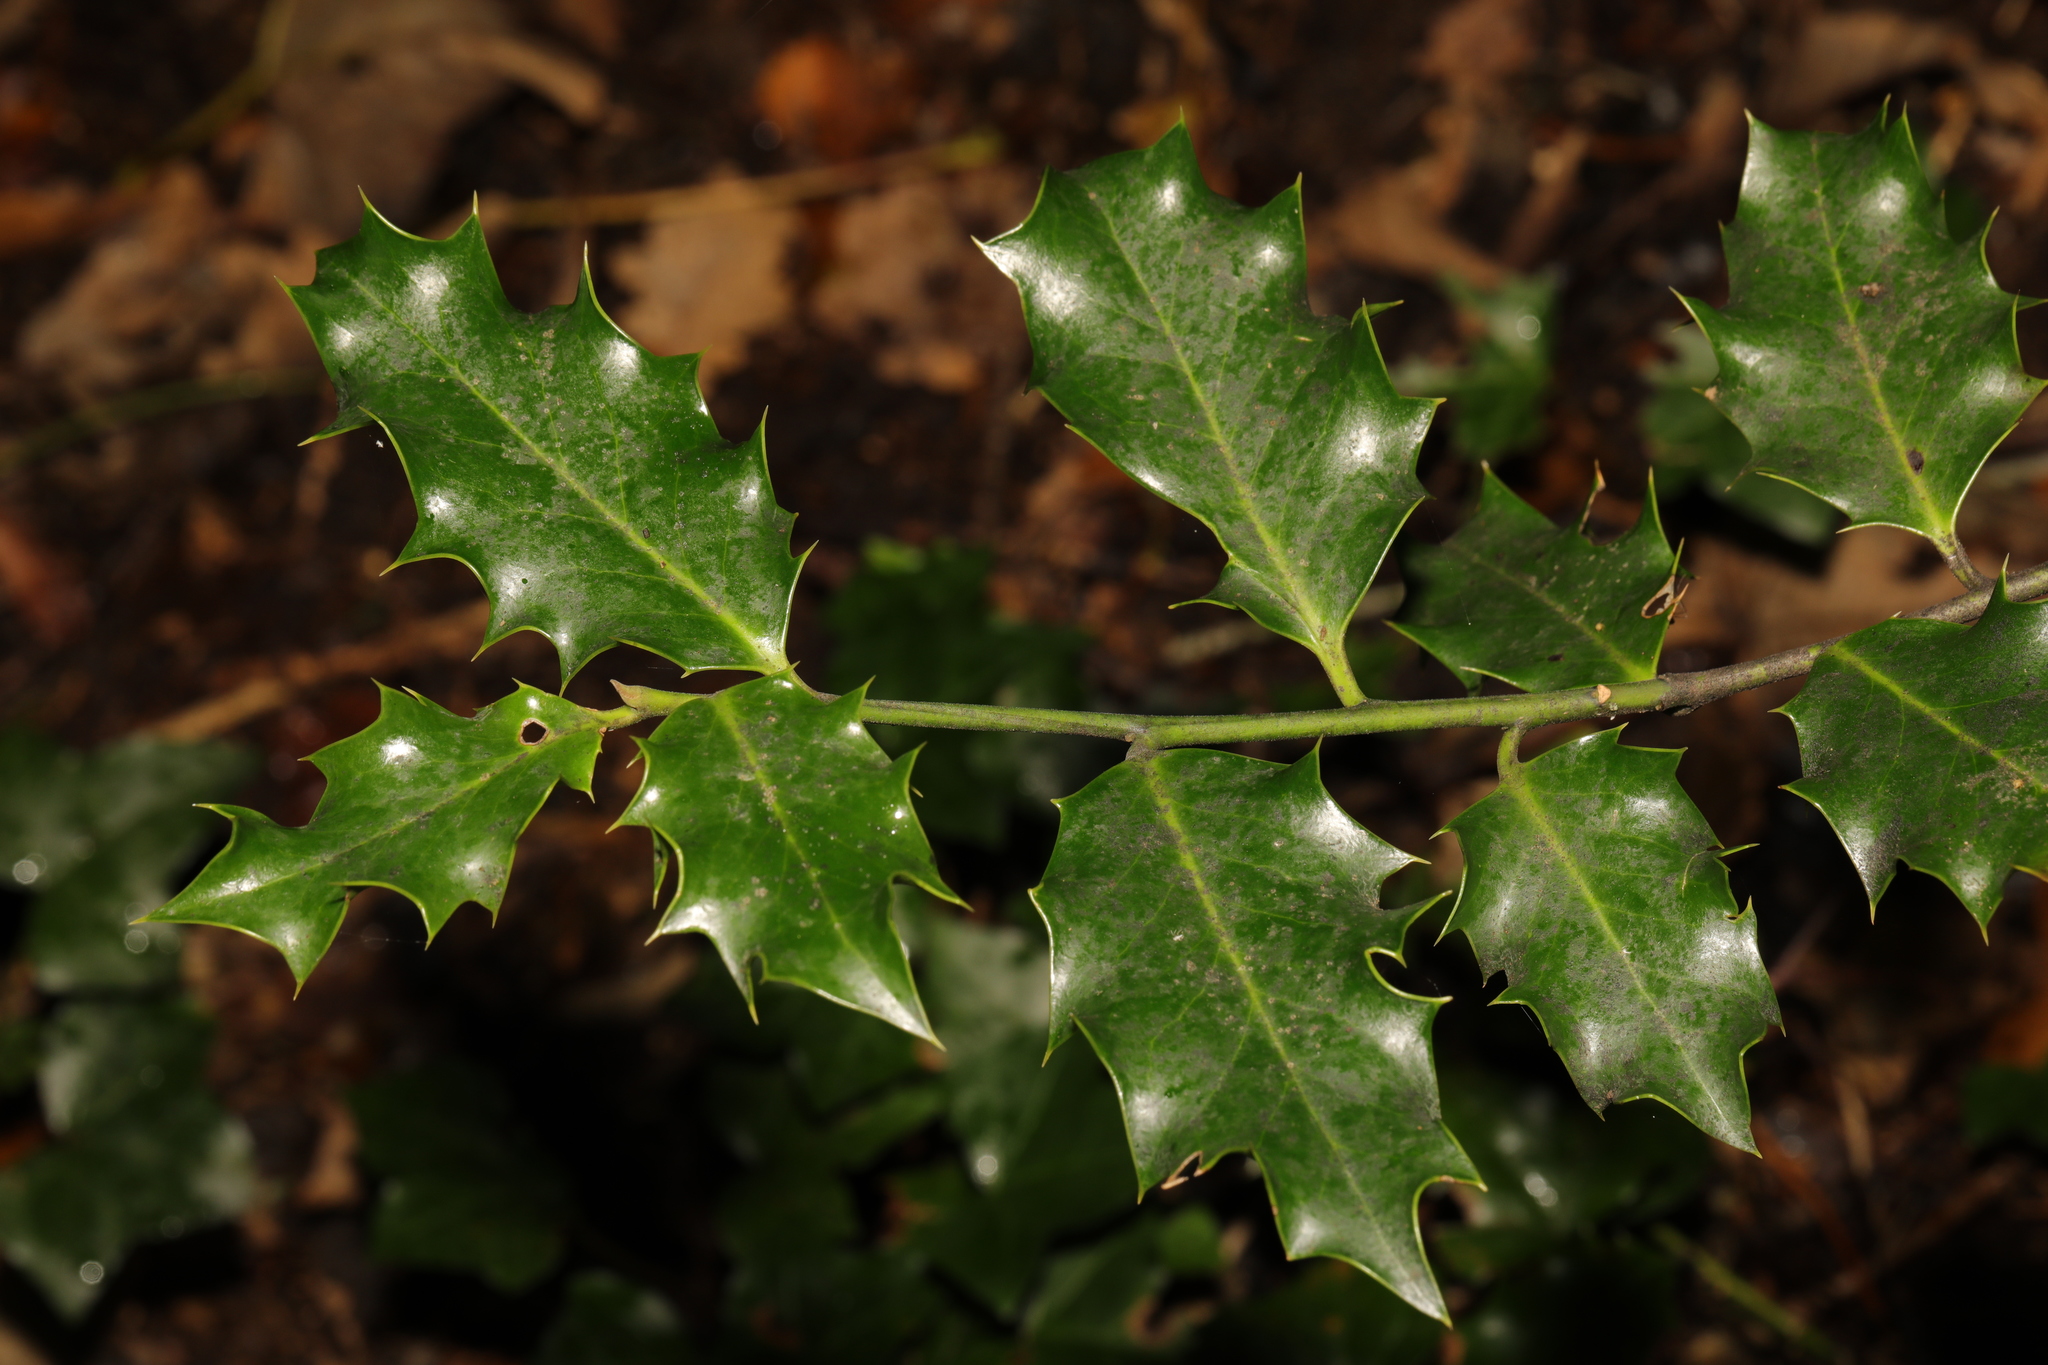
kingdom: Plantae
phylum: Tracheophyta
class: Magnoliopsida
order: Aquifoliales
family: Aquifoliaceae
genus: Ilex
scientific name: Ilex aquifolium
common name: English holly
